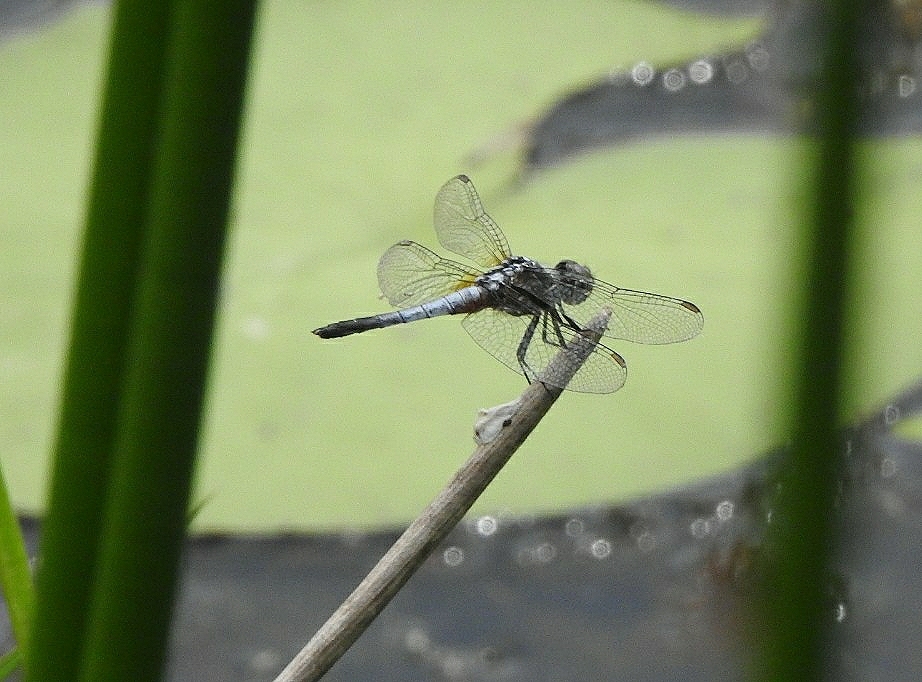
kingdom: Animalia
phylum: Arthropoda
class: Insecta
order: Odonata
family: Libellulidae
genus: Brachydiplax
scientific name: Brachydiplax chalybea
